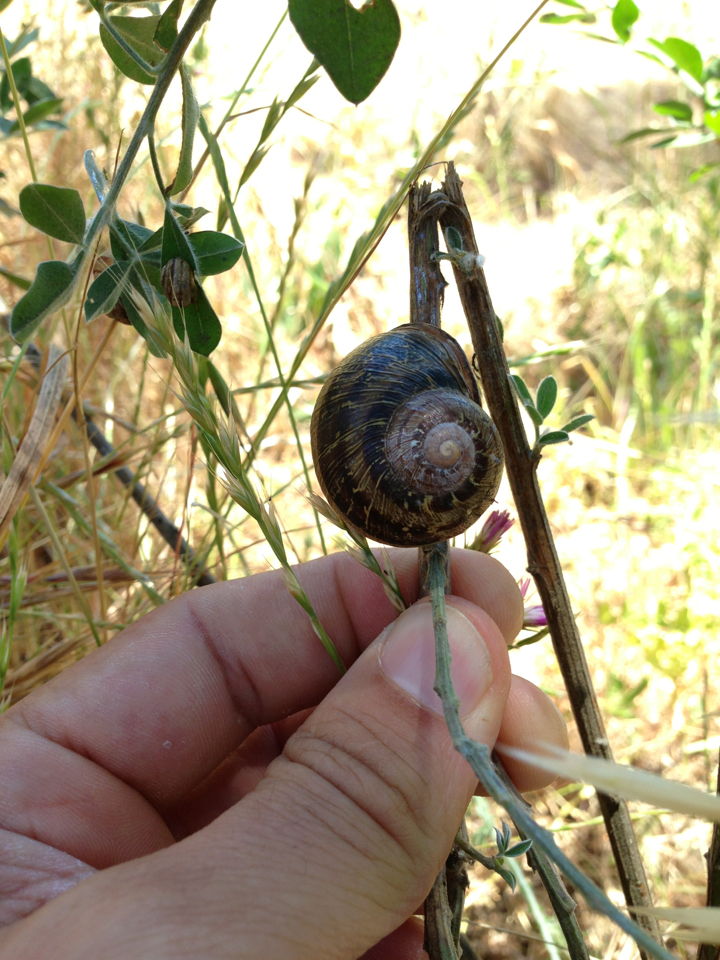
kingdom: Animalia
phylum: Mollusca
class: Gastropoda
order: Stylommatophora
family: Helicidae
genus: Cornu
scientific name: Cornu aspersum
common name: Brown garden snail
